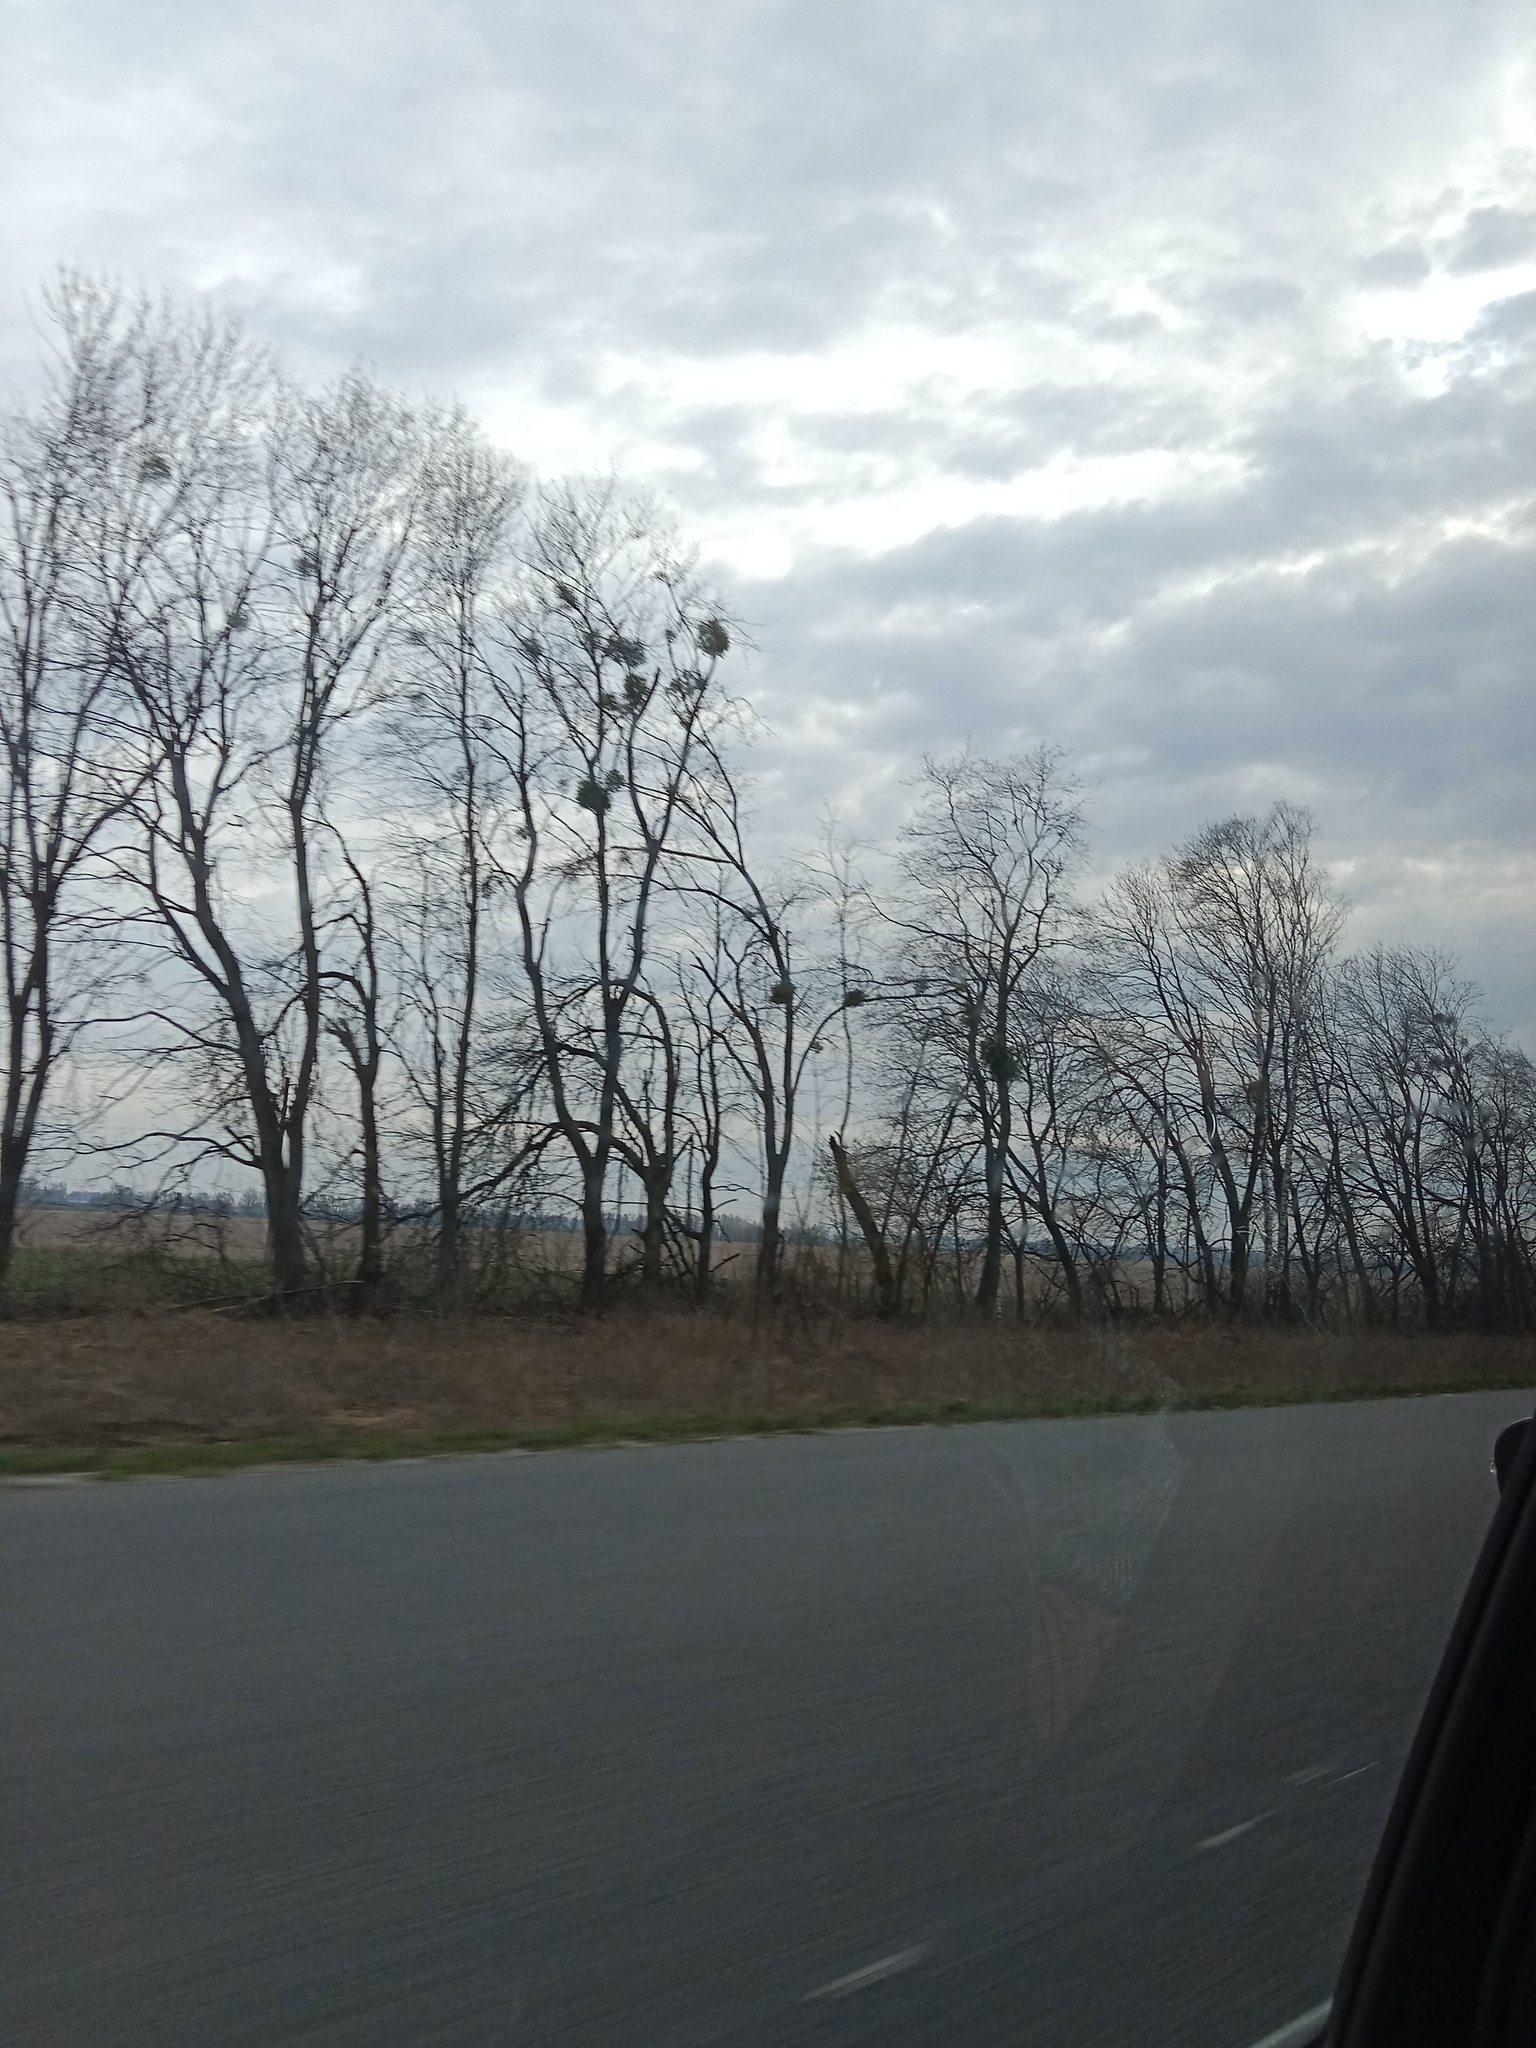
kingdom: Plantae
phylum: Tracheophyta
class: Magnoliopsida
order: Santalales
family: Viscaceae
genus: Viscum
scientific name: Viscum album
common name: Mistletoe
